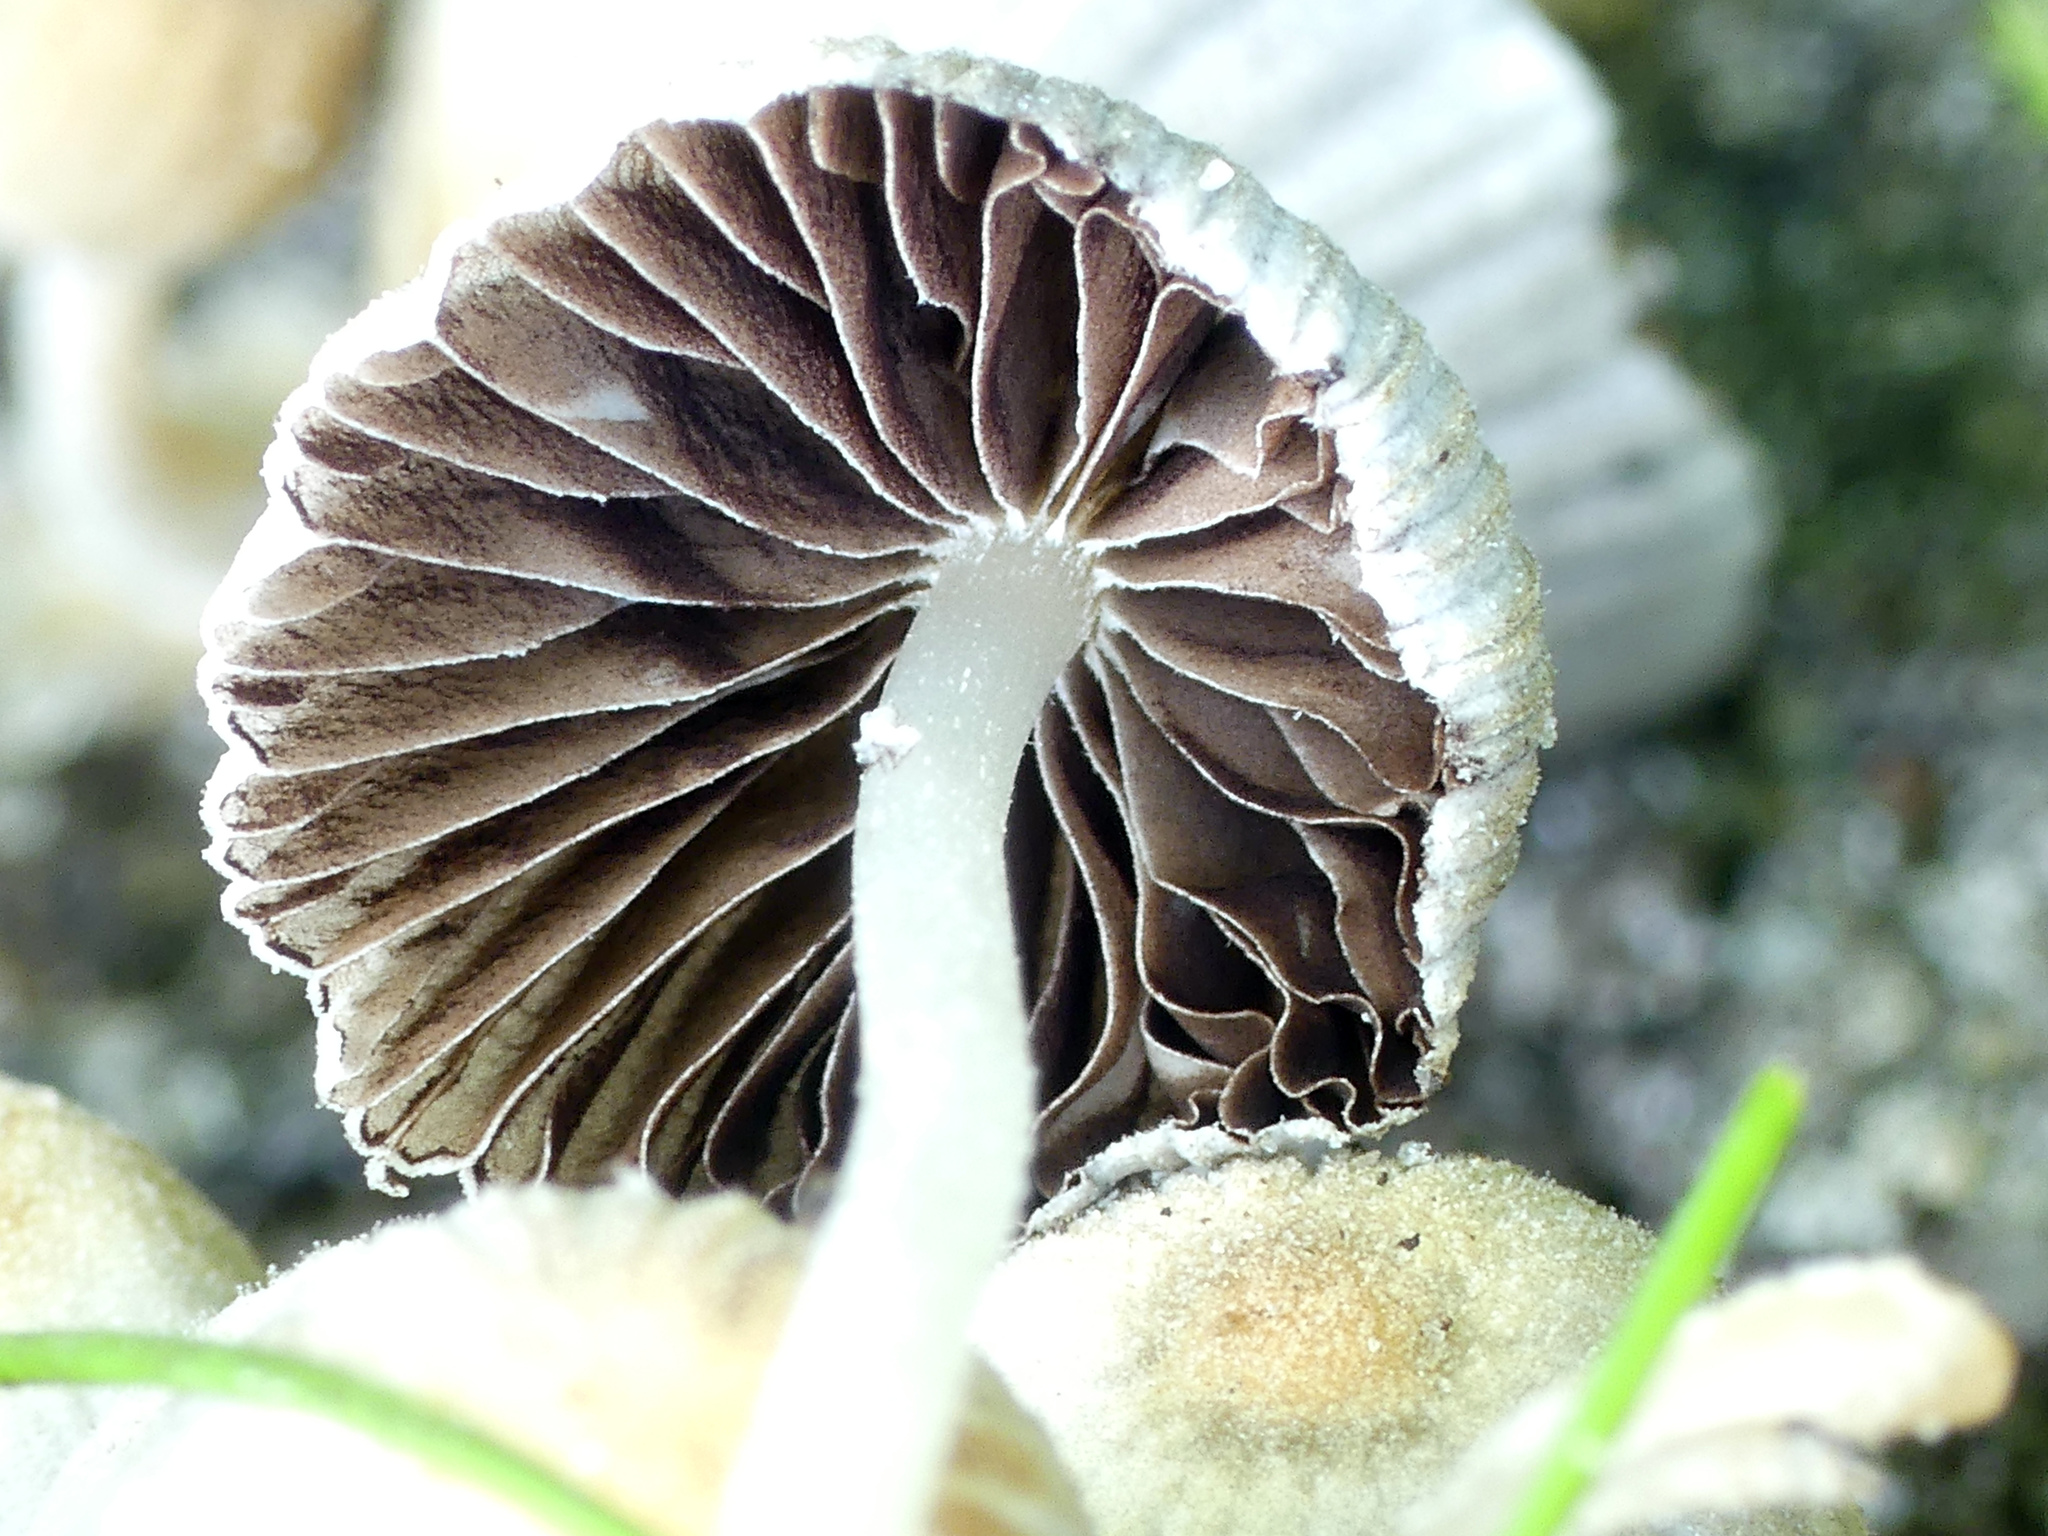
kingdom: Fungi
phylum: Basidiomycota
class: Agaricomycetes
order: Agaricales
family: Psathyrellaceae
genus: Coprinellus
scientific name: Coprinellus disseminatus
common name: Fairies' bonnets
